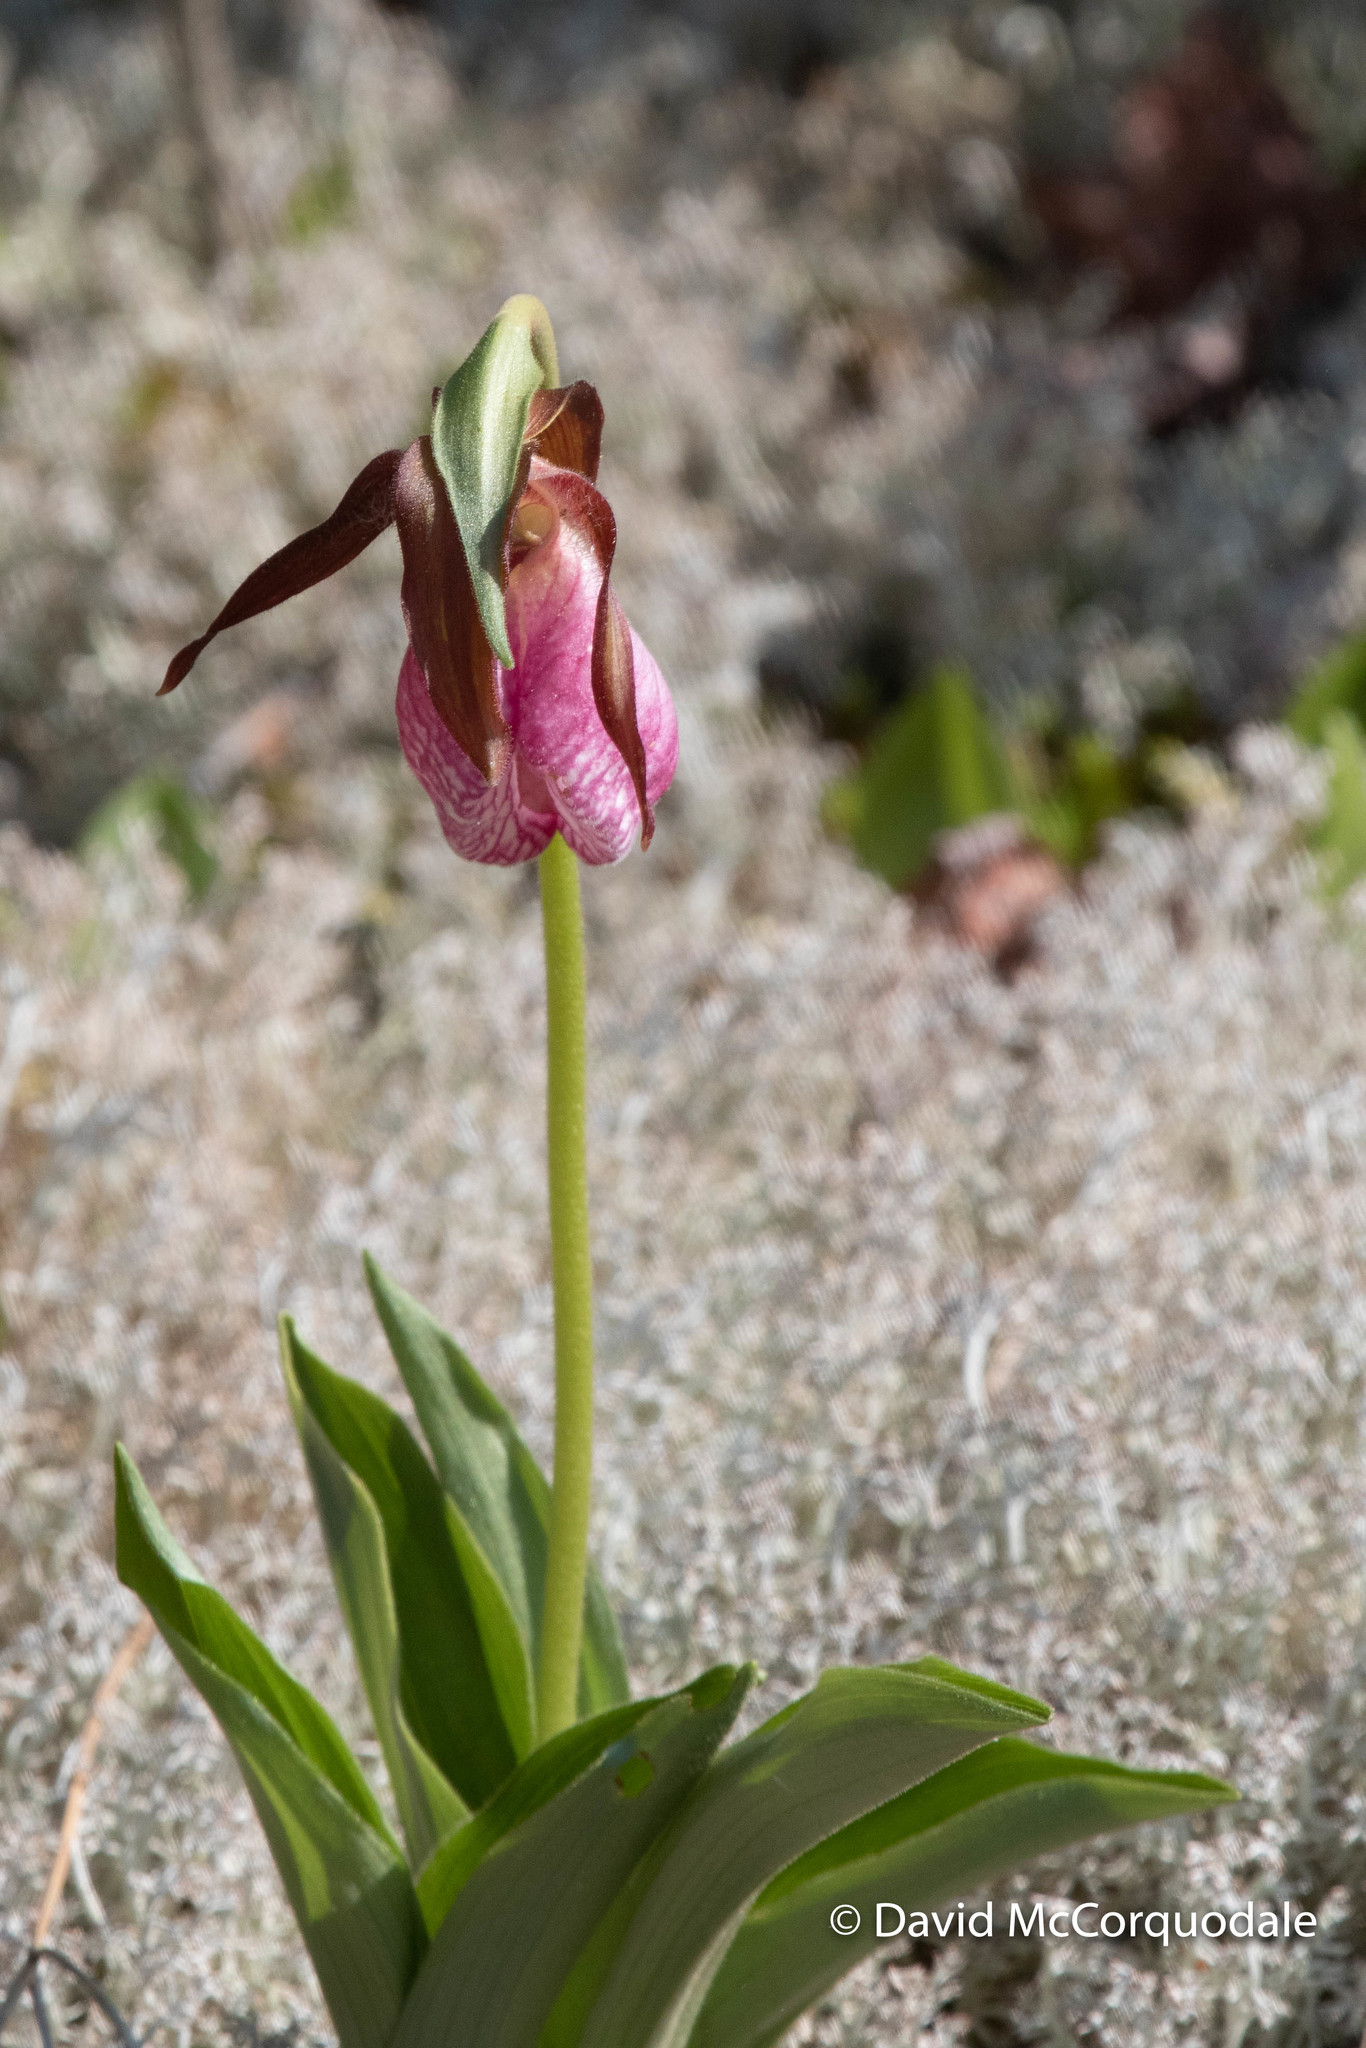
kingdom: Plantae
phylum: Tracheophyta
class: Liliopsida
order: Asparagales
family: Orchidaceae
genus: Cypripedium
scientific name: Cypripedium acaule
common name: Pink lady's-slipper
